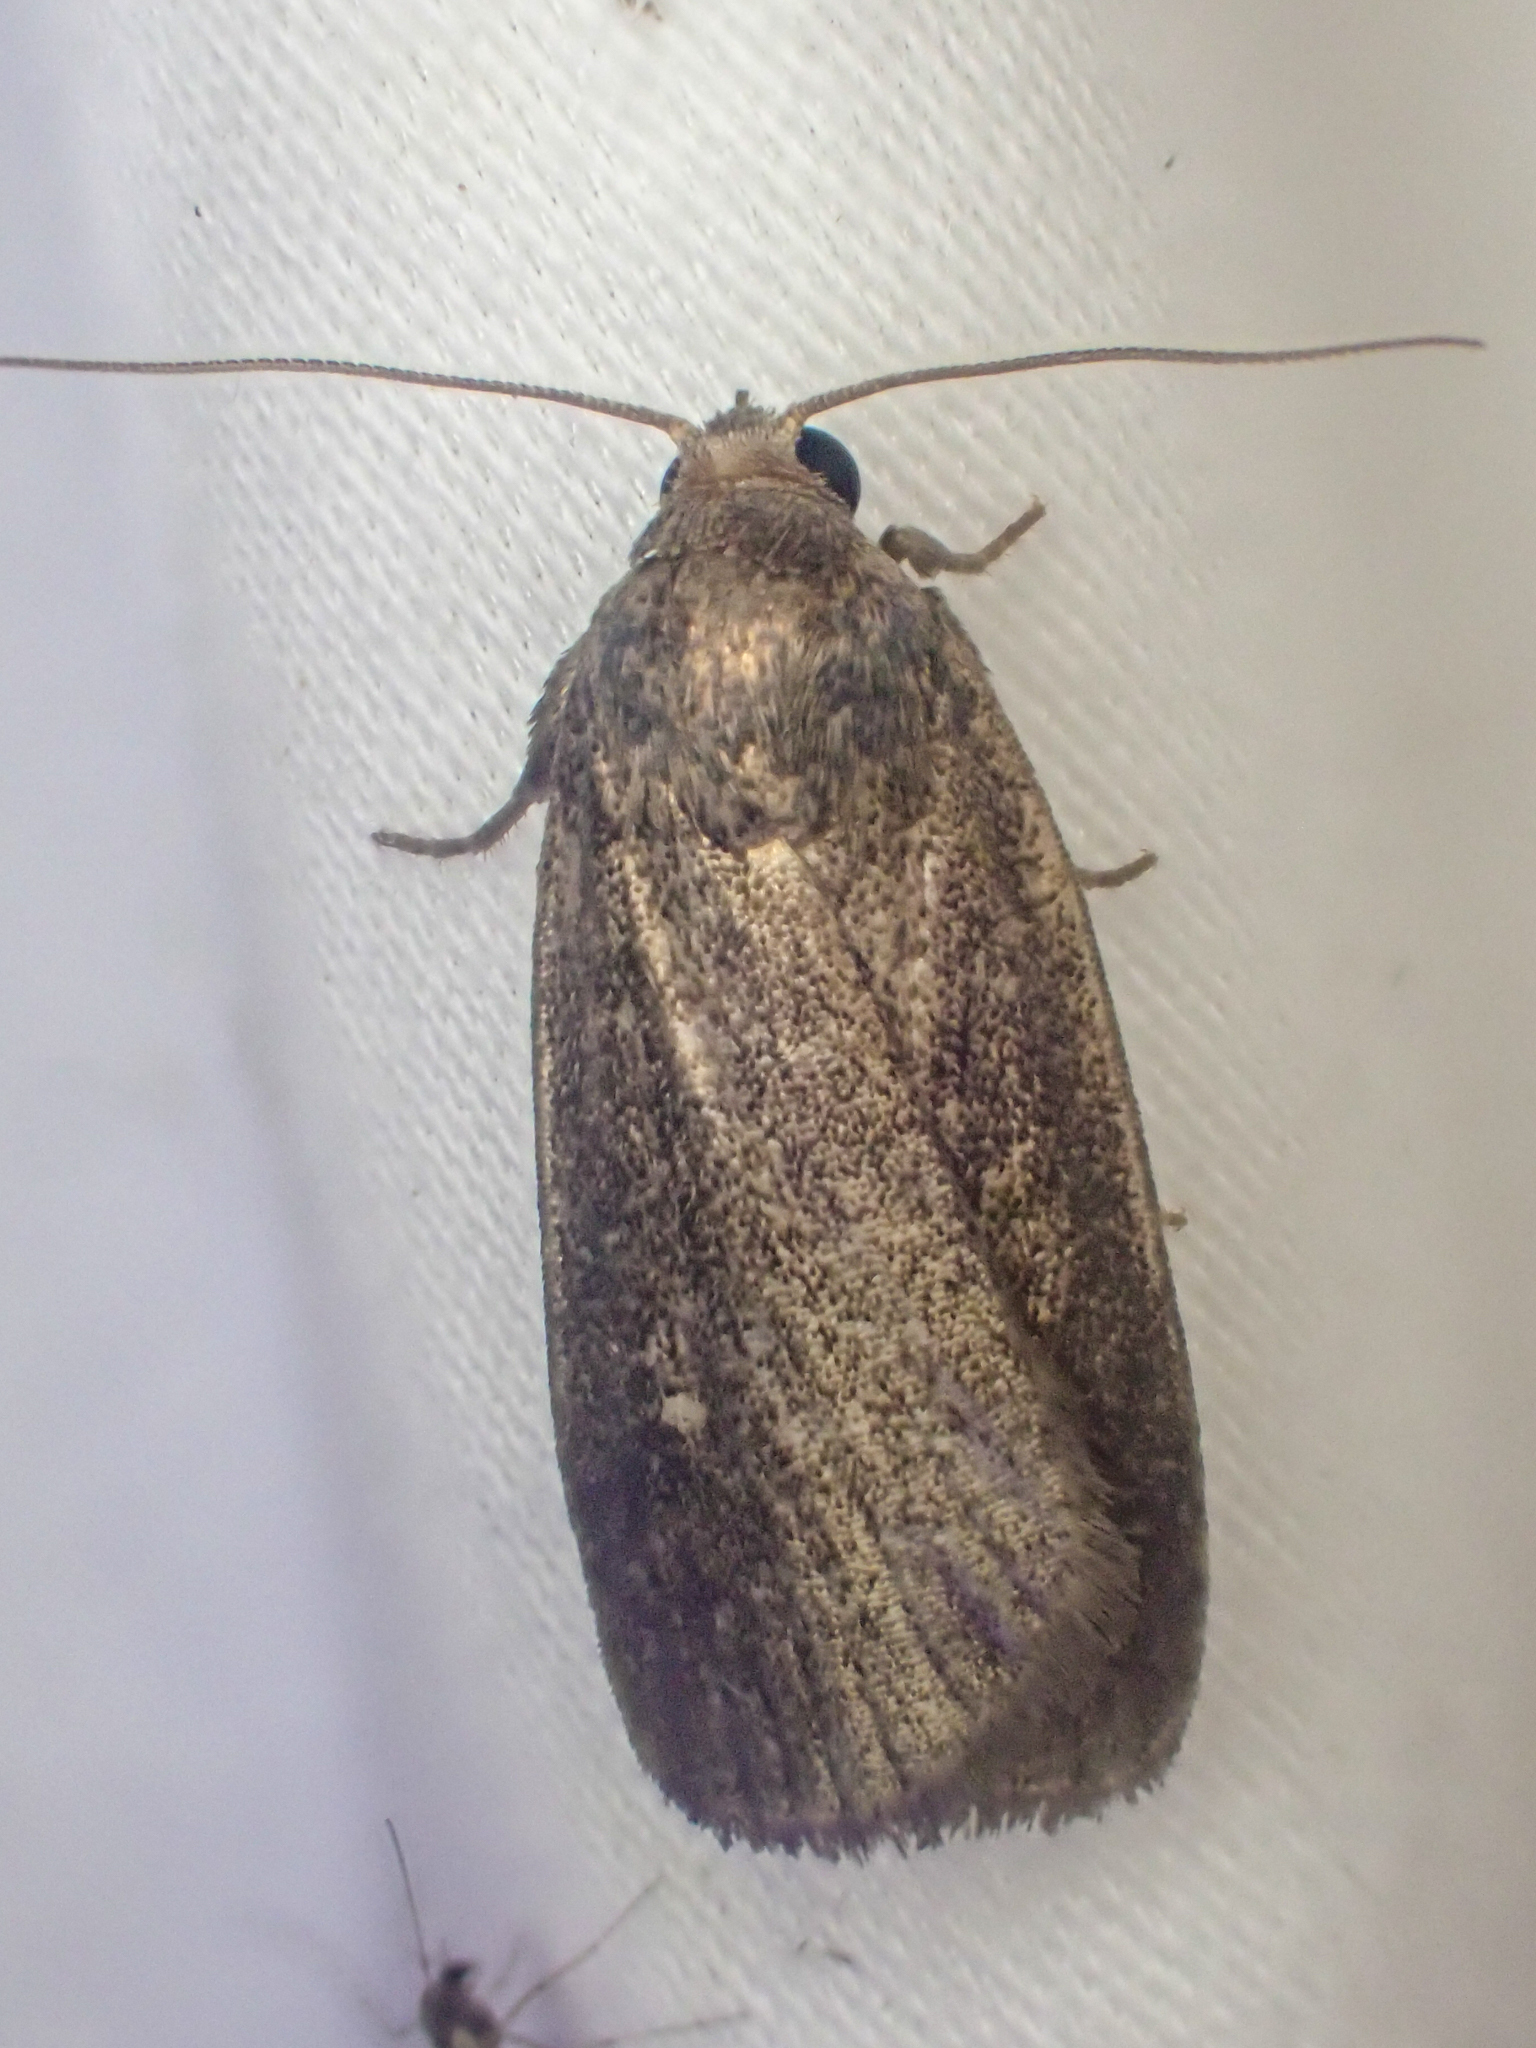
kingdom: Animalia
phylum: Arthropoda
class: Insecta
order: Lepidoptera
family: Noctuidae
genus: Proxenus
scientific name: Proxenus miranda
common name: Miranda moth
